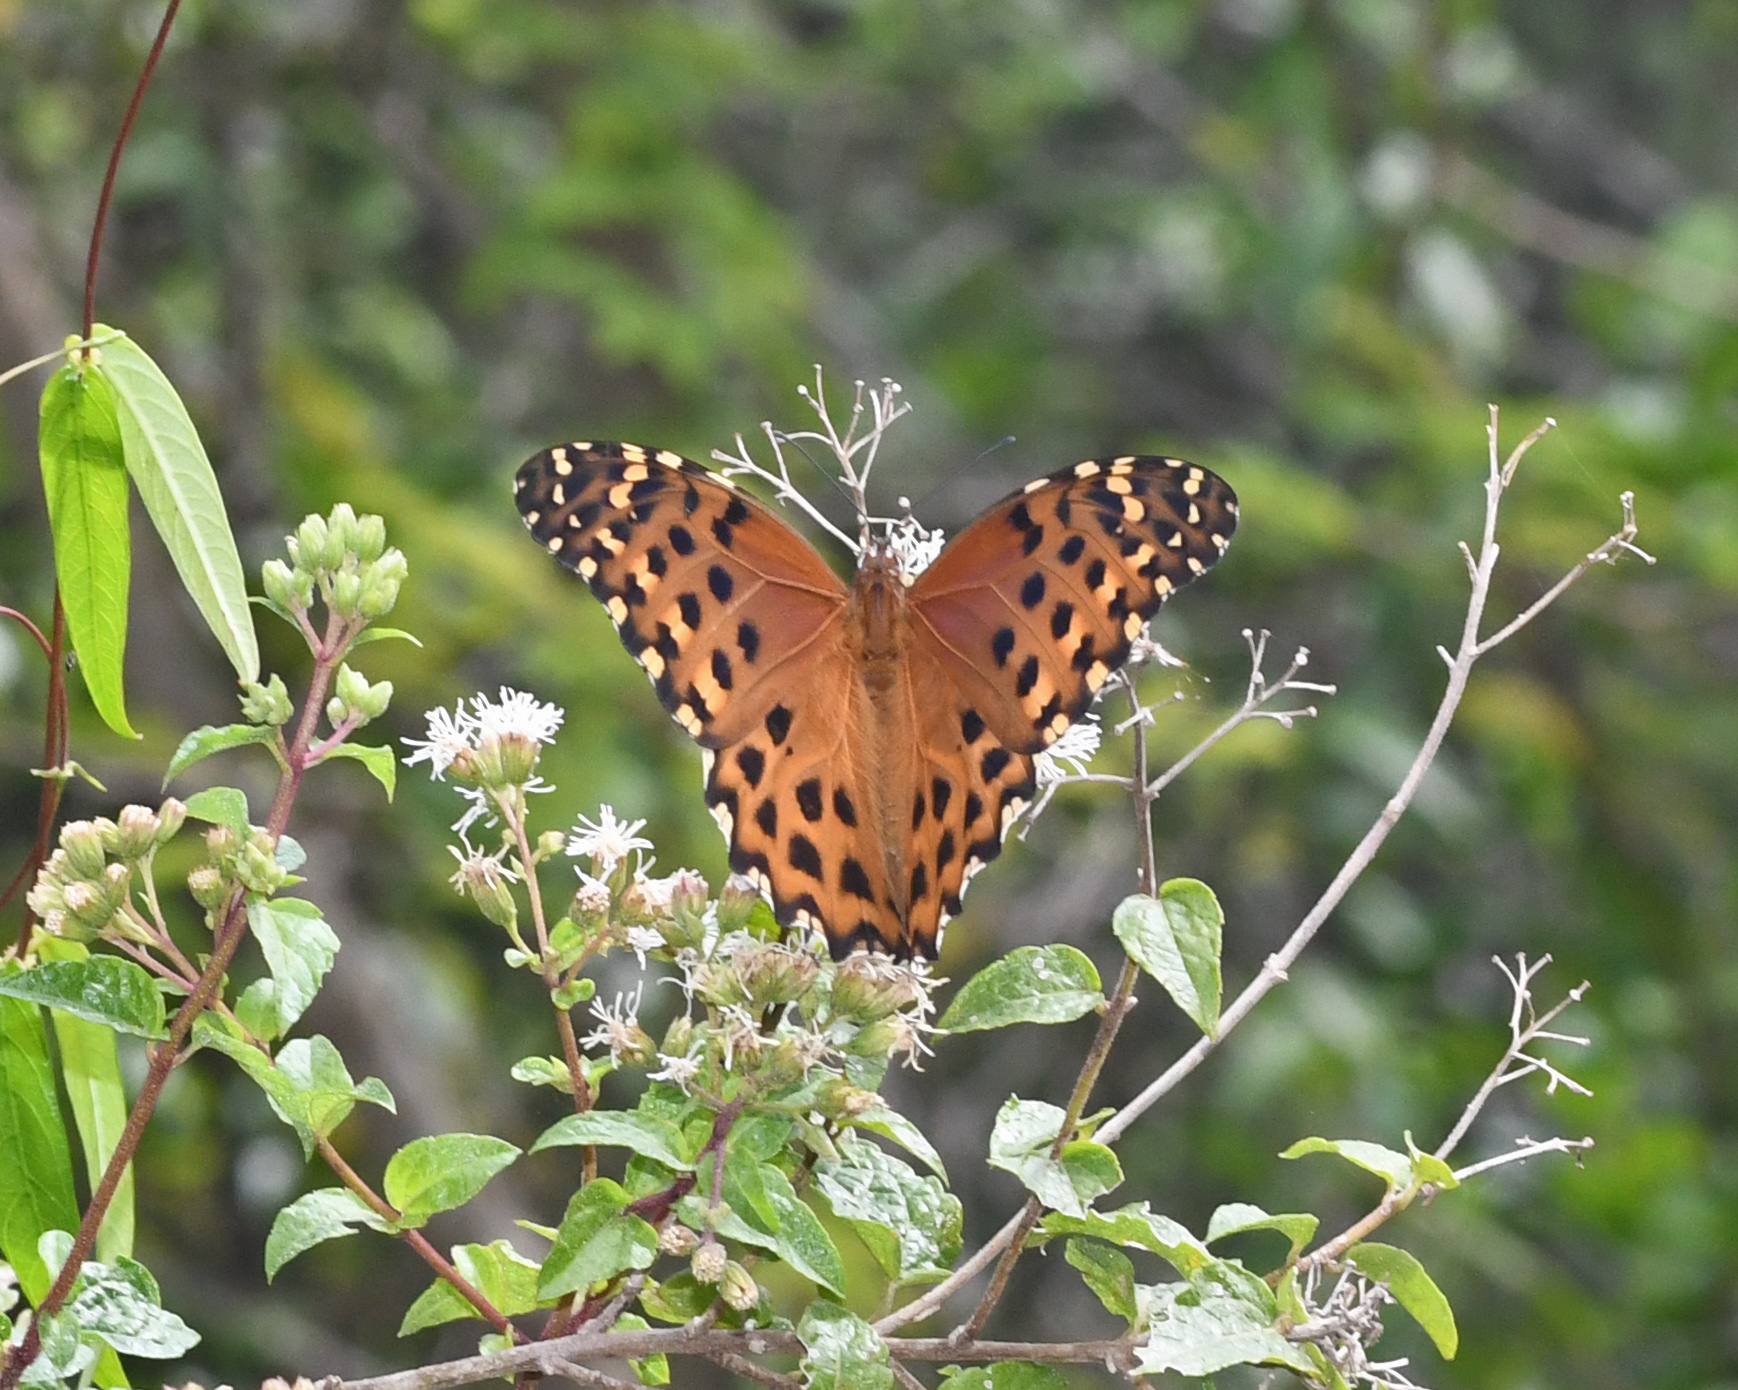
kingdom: Animalia
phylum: Arthropoda
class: Insecta
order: Lepidoptera
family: Nymphalidae
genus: Anetia
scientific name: Anetia pantheratus
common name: False fritillary
